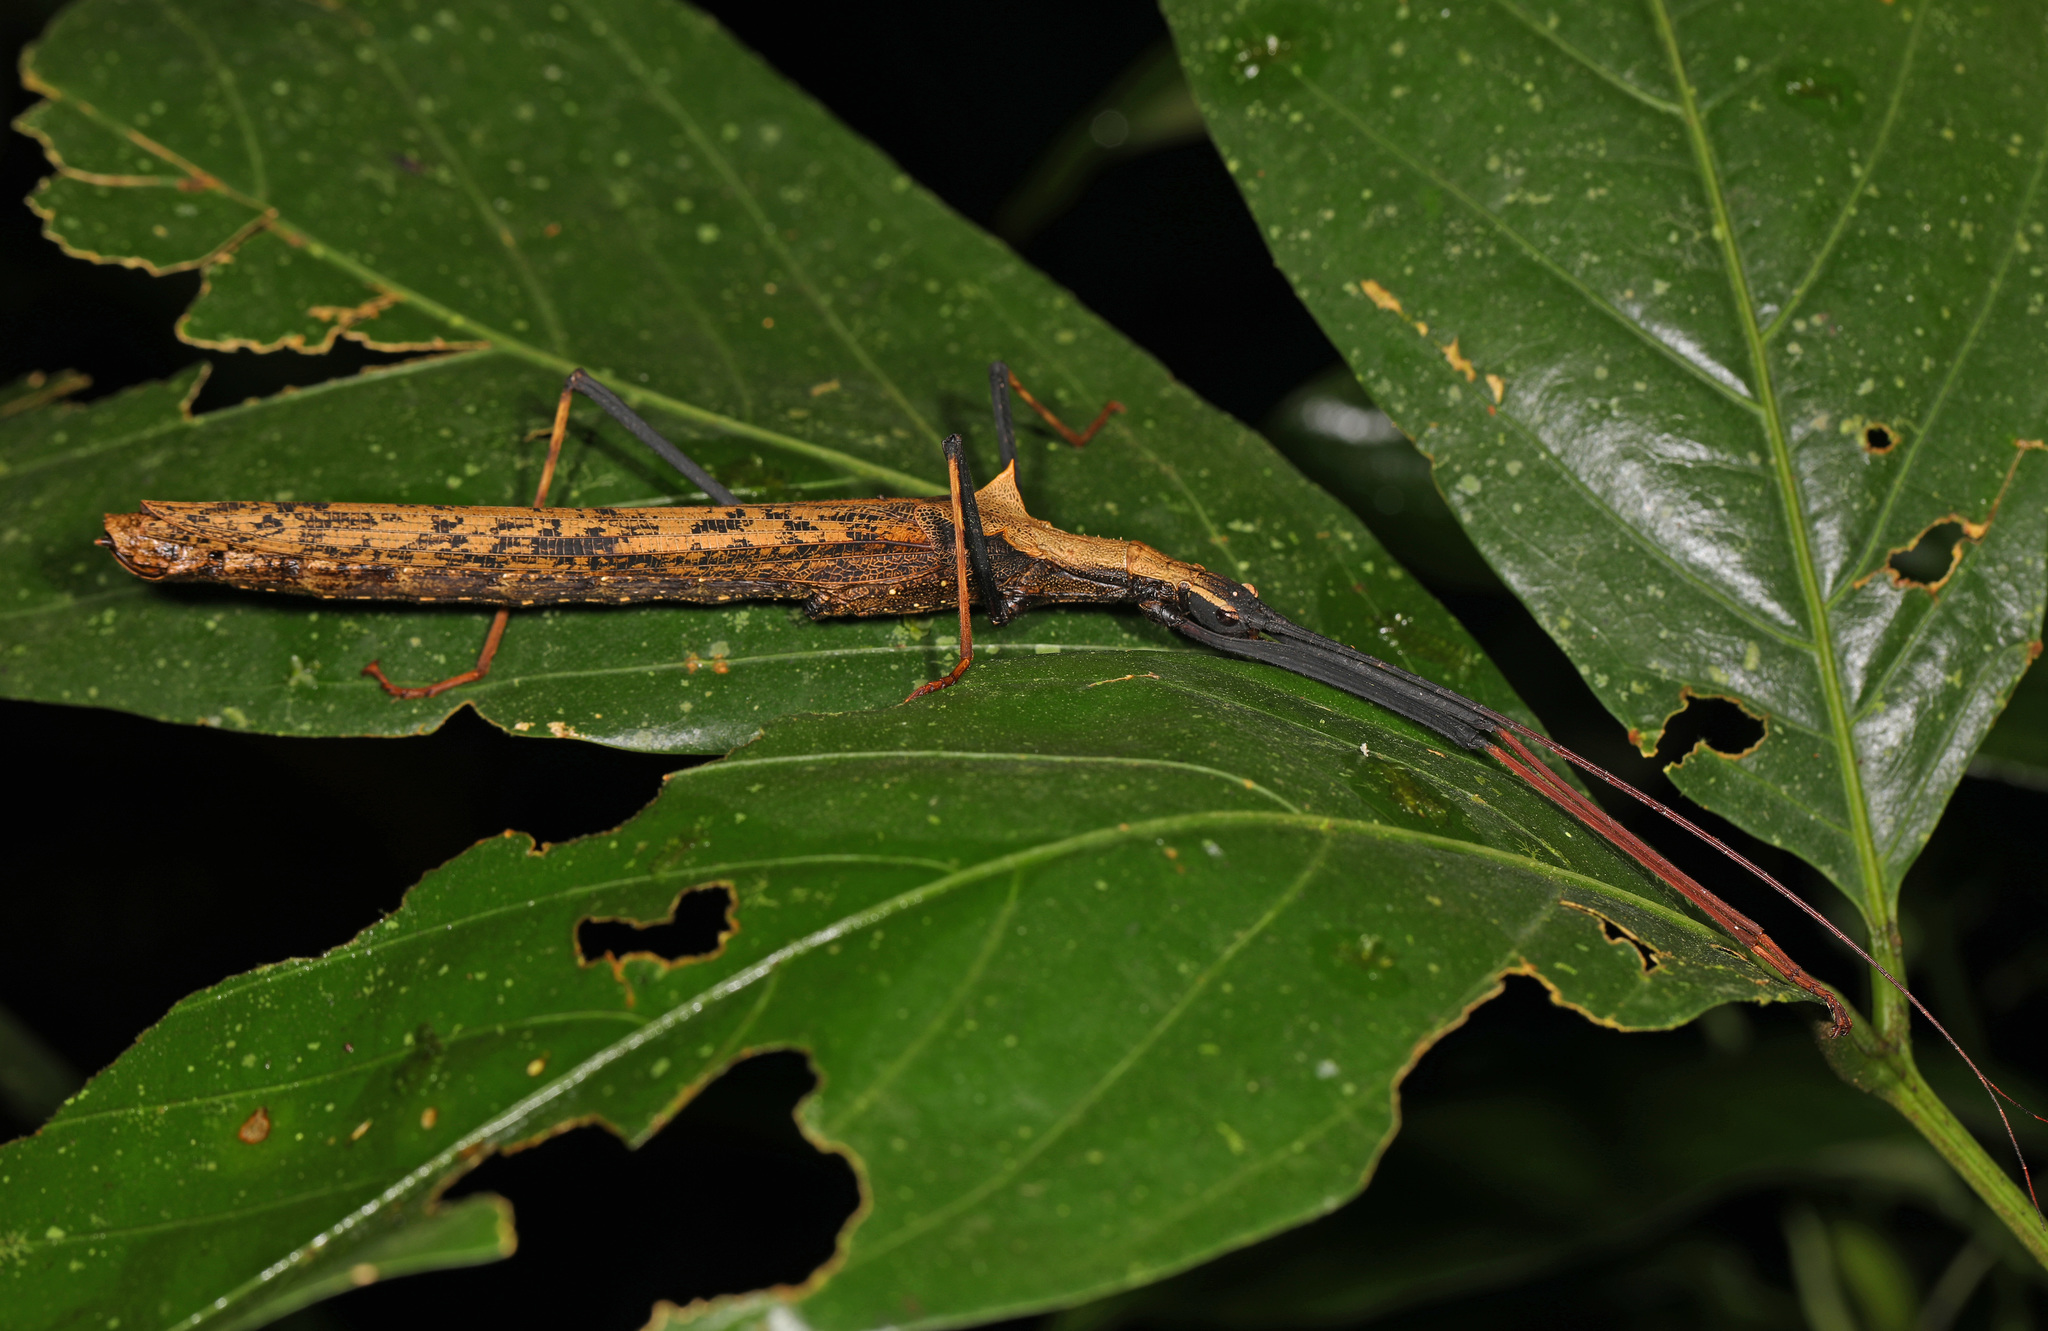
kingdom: Animalia
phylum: Arthropoda
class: Insecta
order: Phasmida
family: Pseudophasmatidae
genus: Pseudophasma
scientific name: Pseudophasma bispinosum
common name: Two-spined ecuador stick insect
